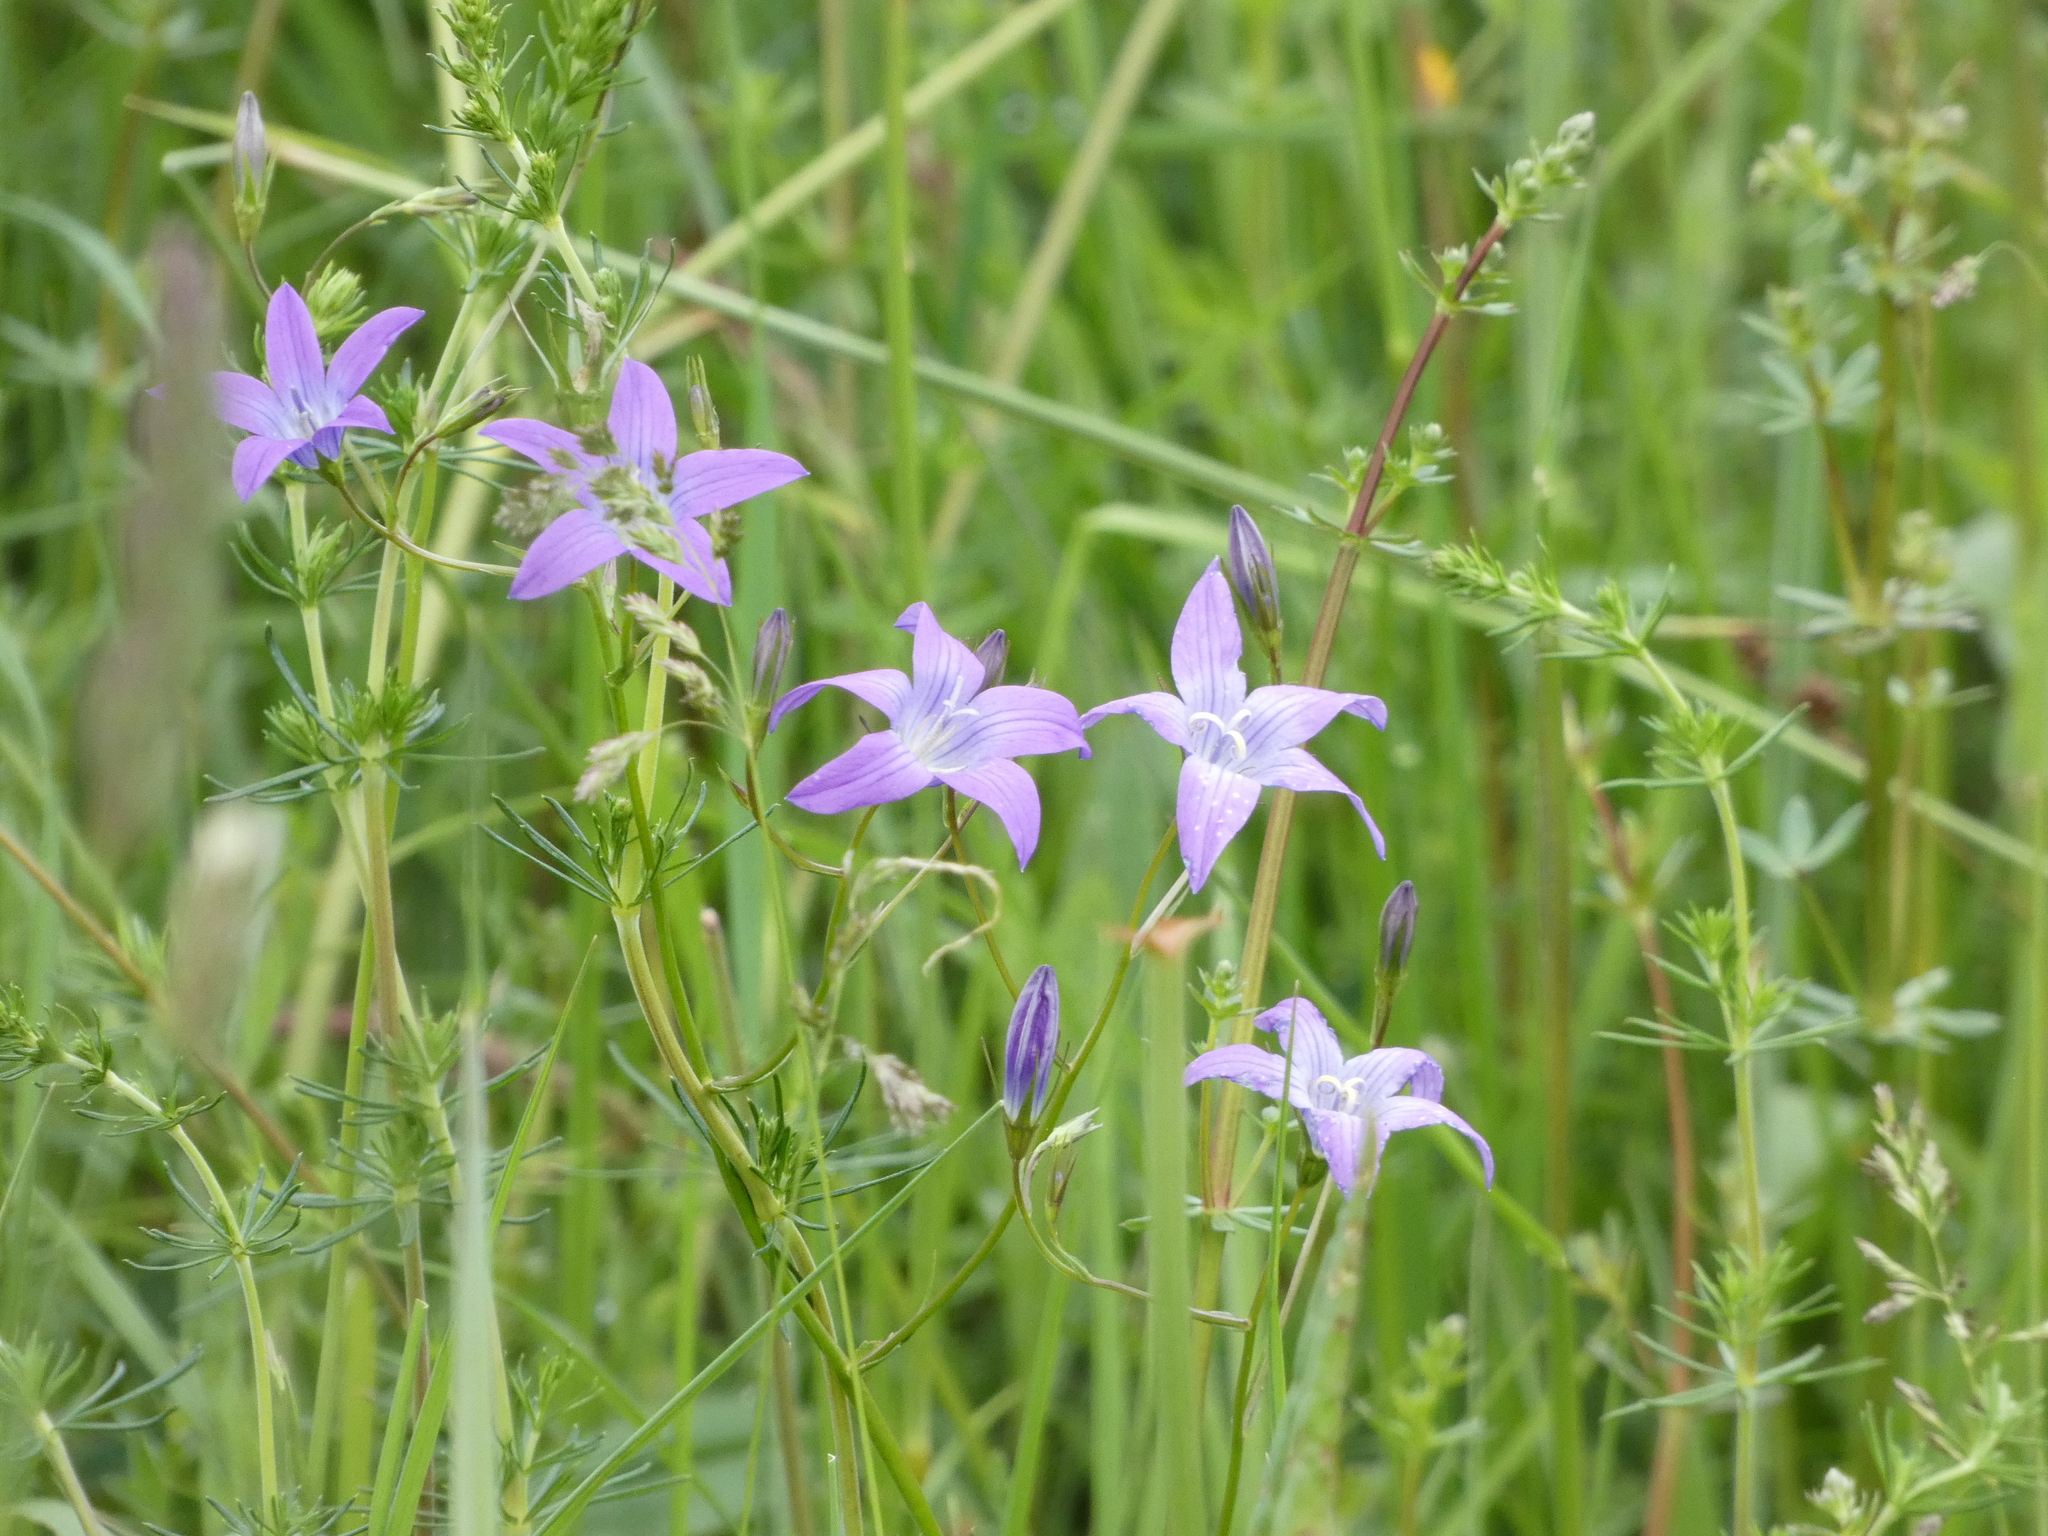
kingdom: Plantae
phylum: Tracheophyta
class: Magnoliopsida
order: Asterales
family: Campanulaceae
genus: Campanula
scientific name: Campanula patula
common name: Spreading bellflower
